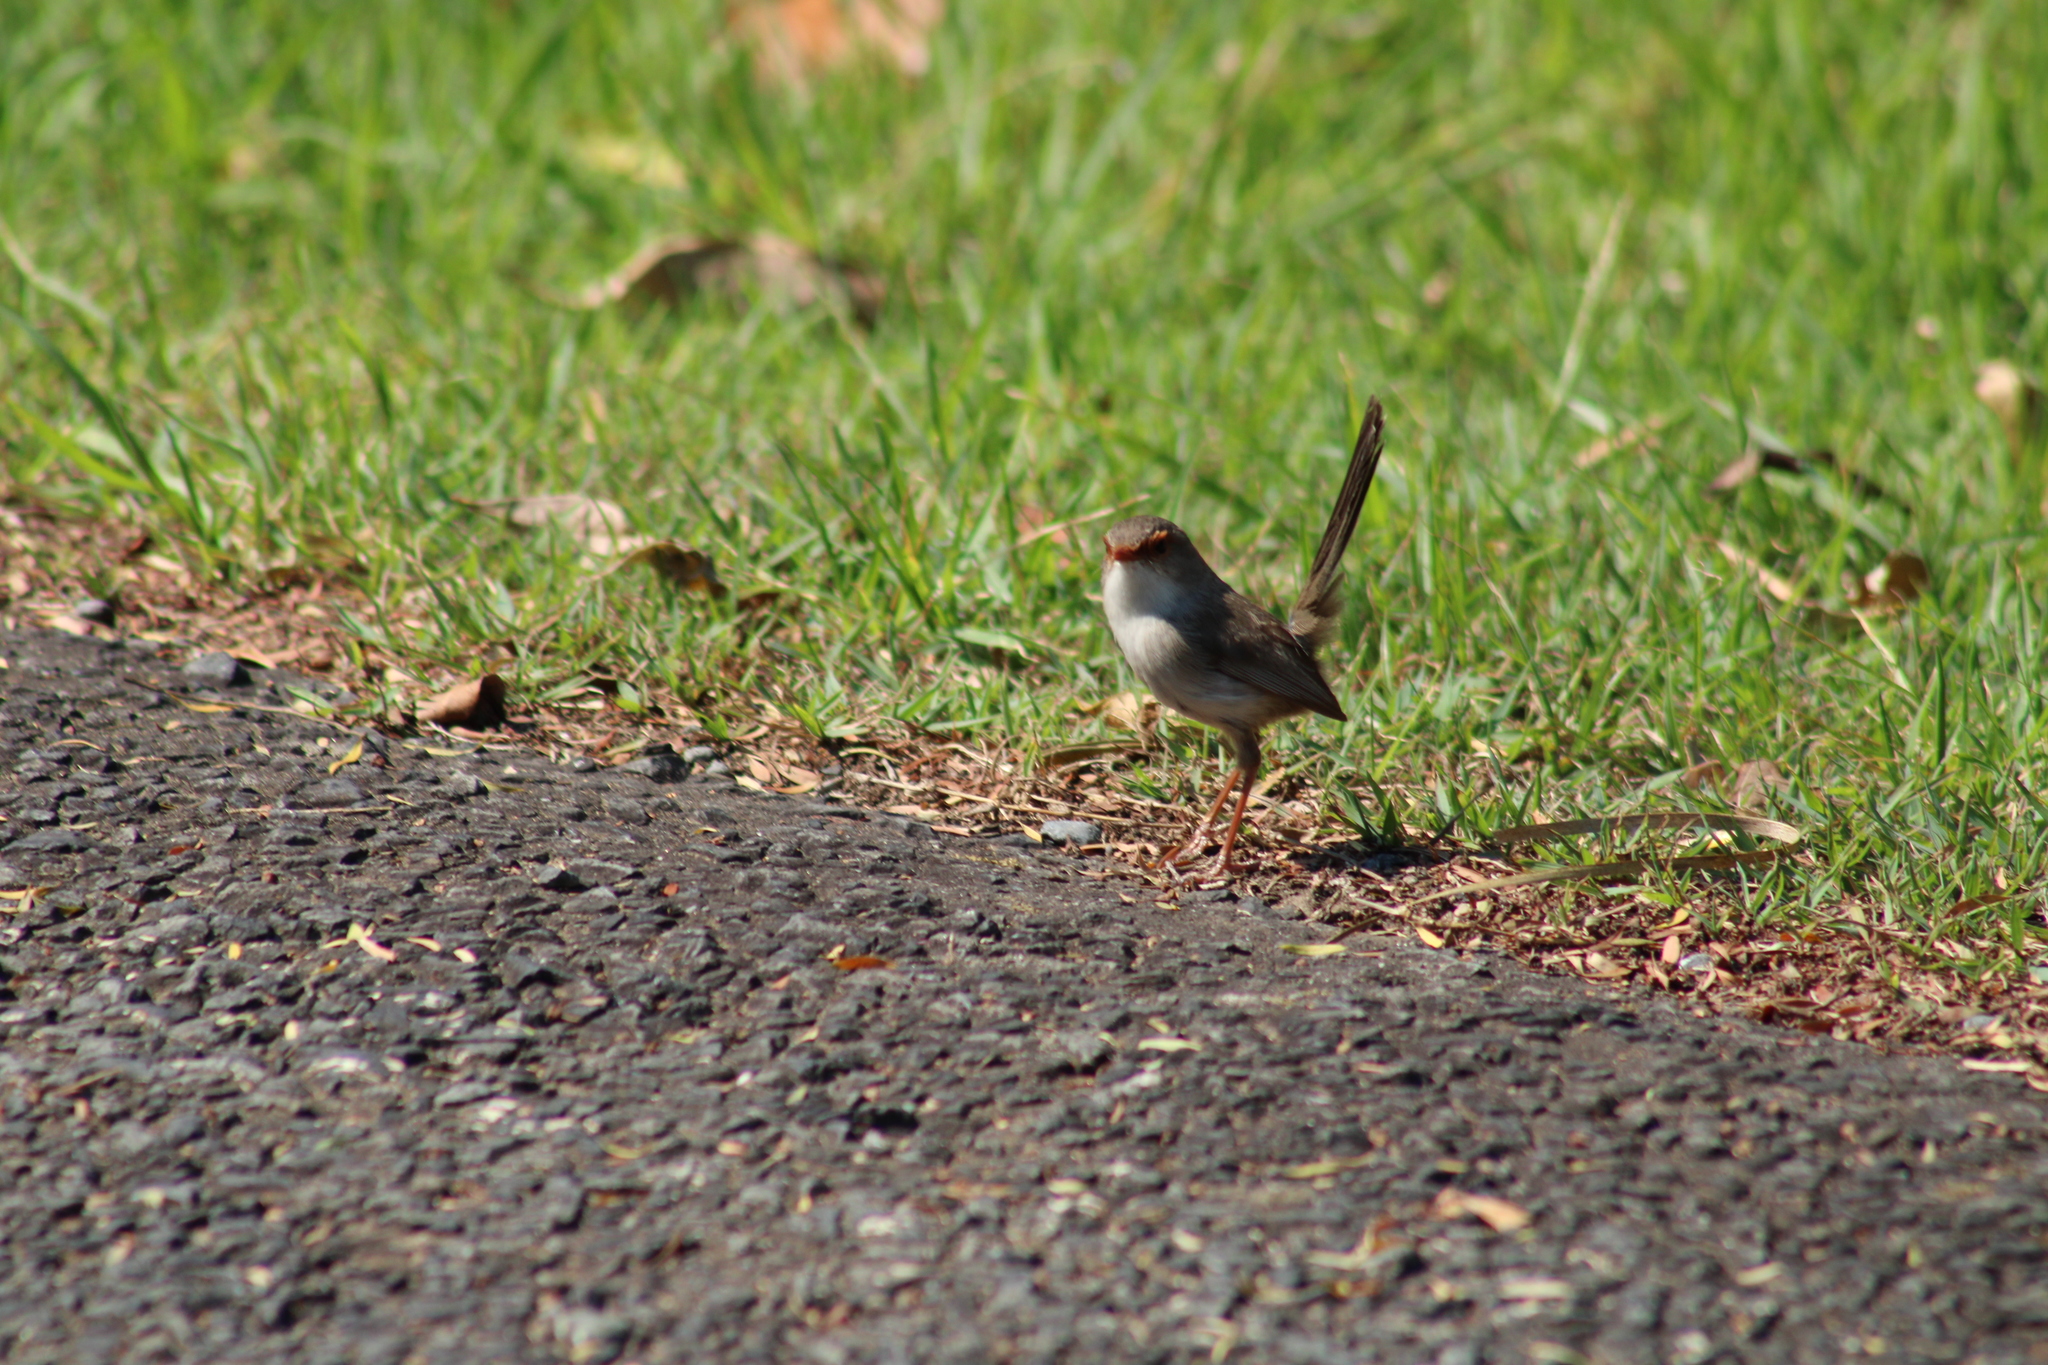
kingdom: Animalia
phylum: Chordata
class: Aves
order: Passeriformes
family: Maluridae
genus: Malurus
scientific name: Malurus cyaneus
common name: Superb fairywren
